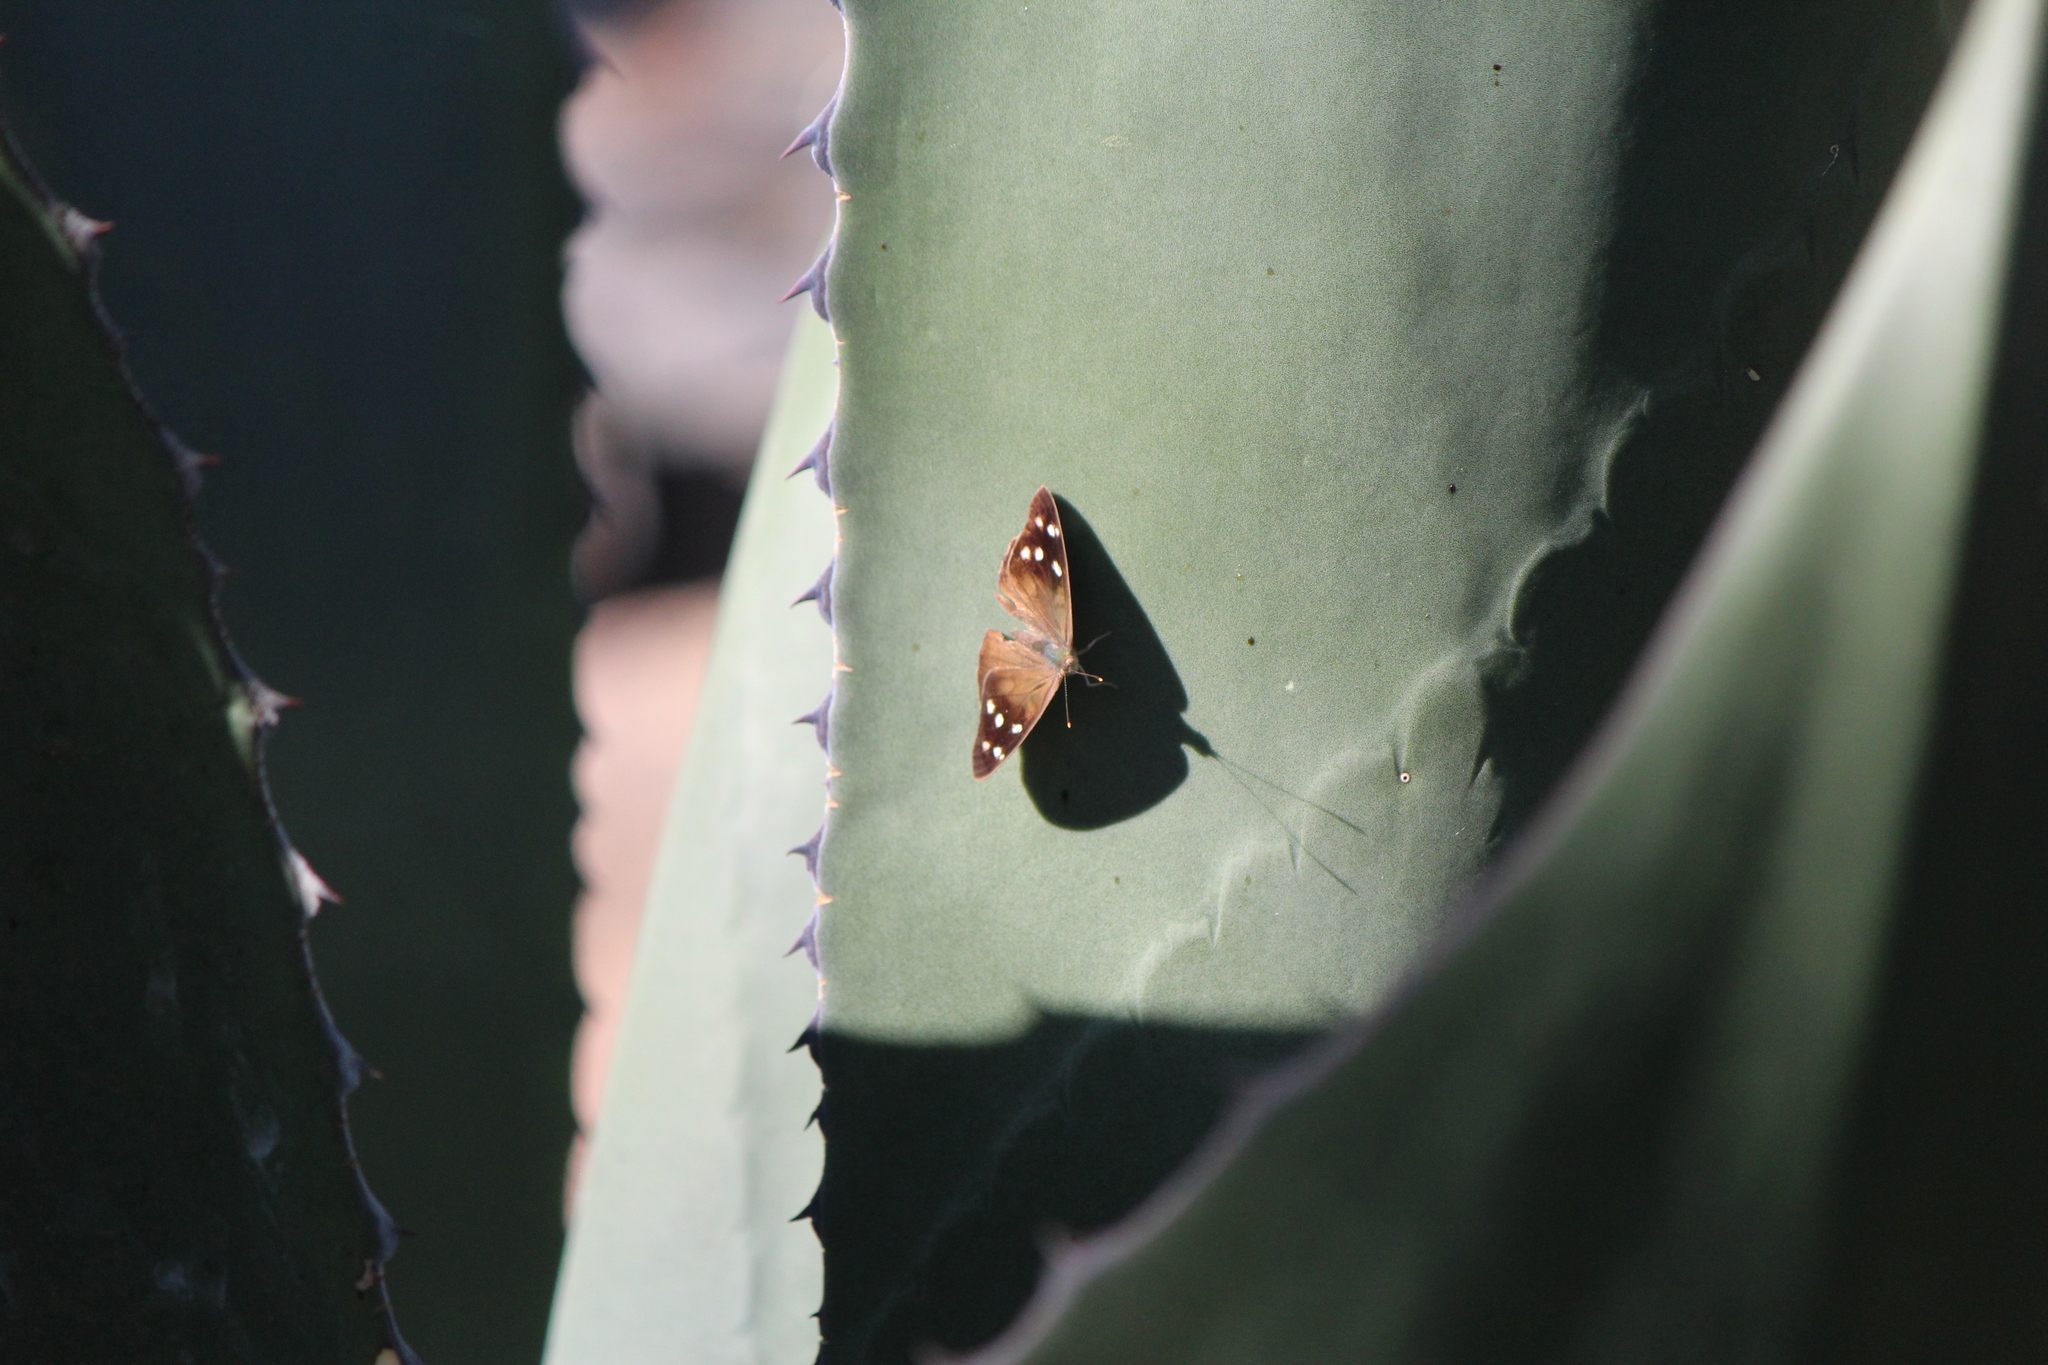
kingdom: Animalia
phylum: Arthropoda
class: Insecta
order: Lepidoptera
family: Nymphalidae
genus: Eunica
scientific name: Eunica monima
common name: Dingy purplewing
